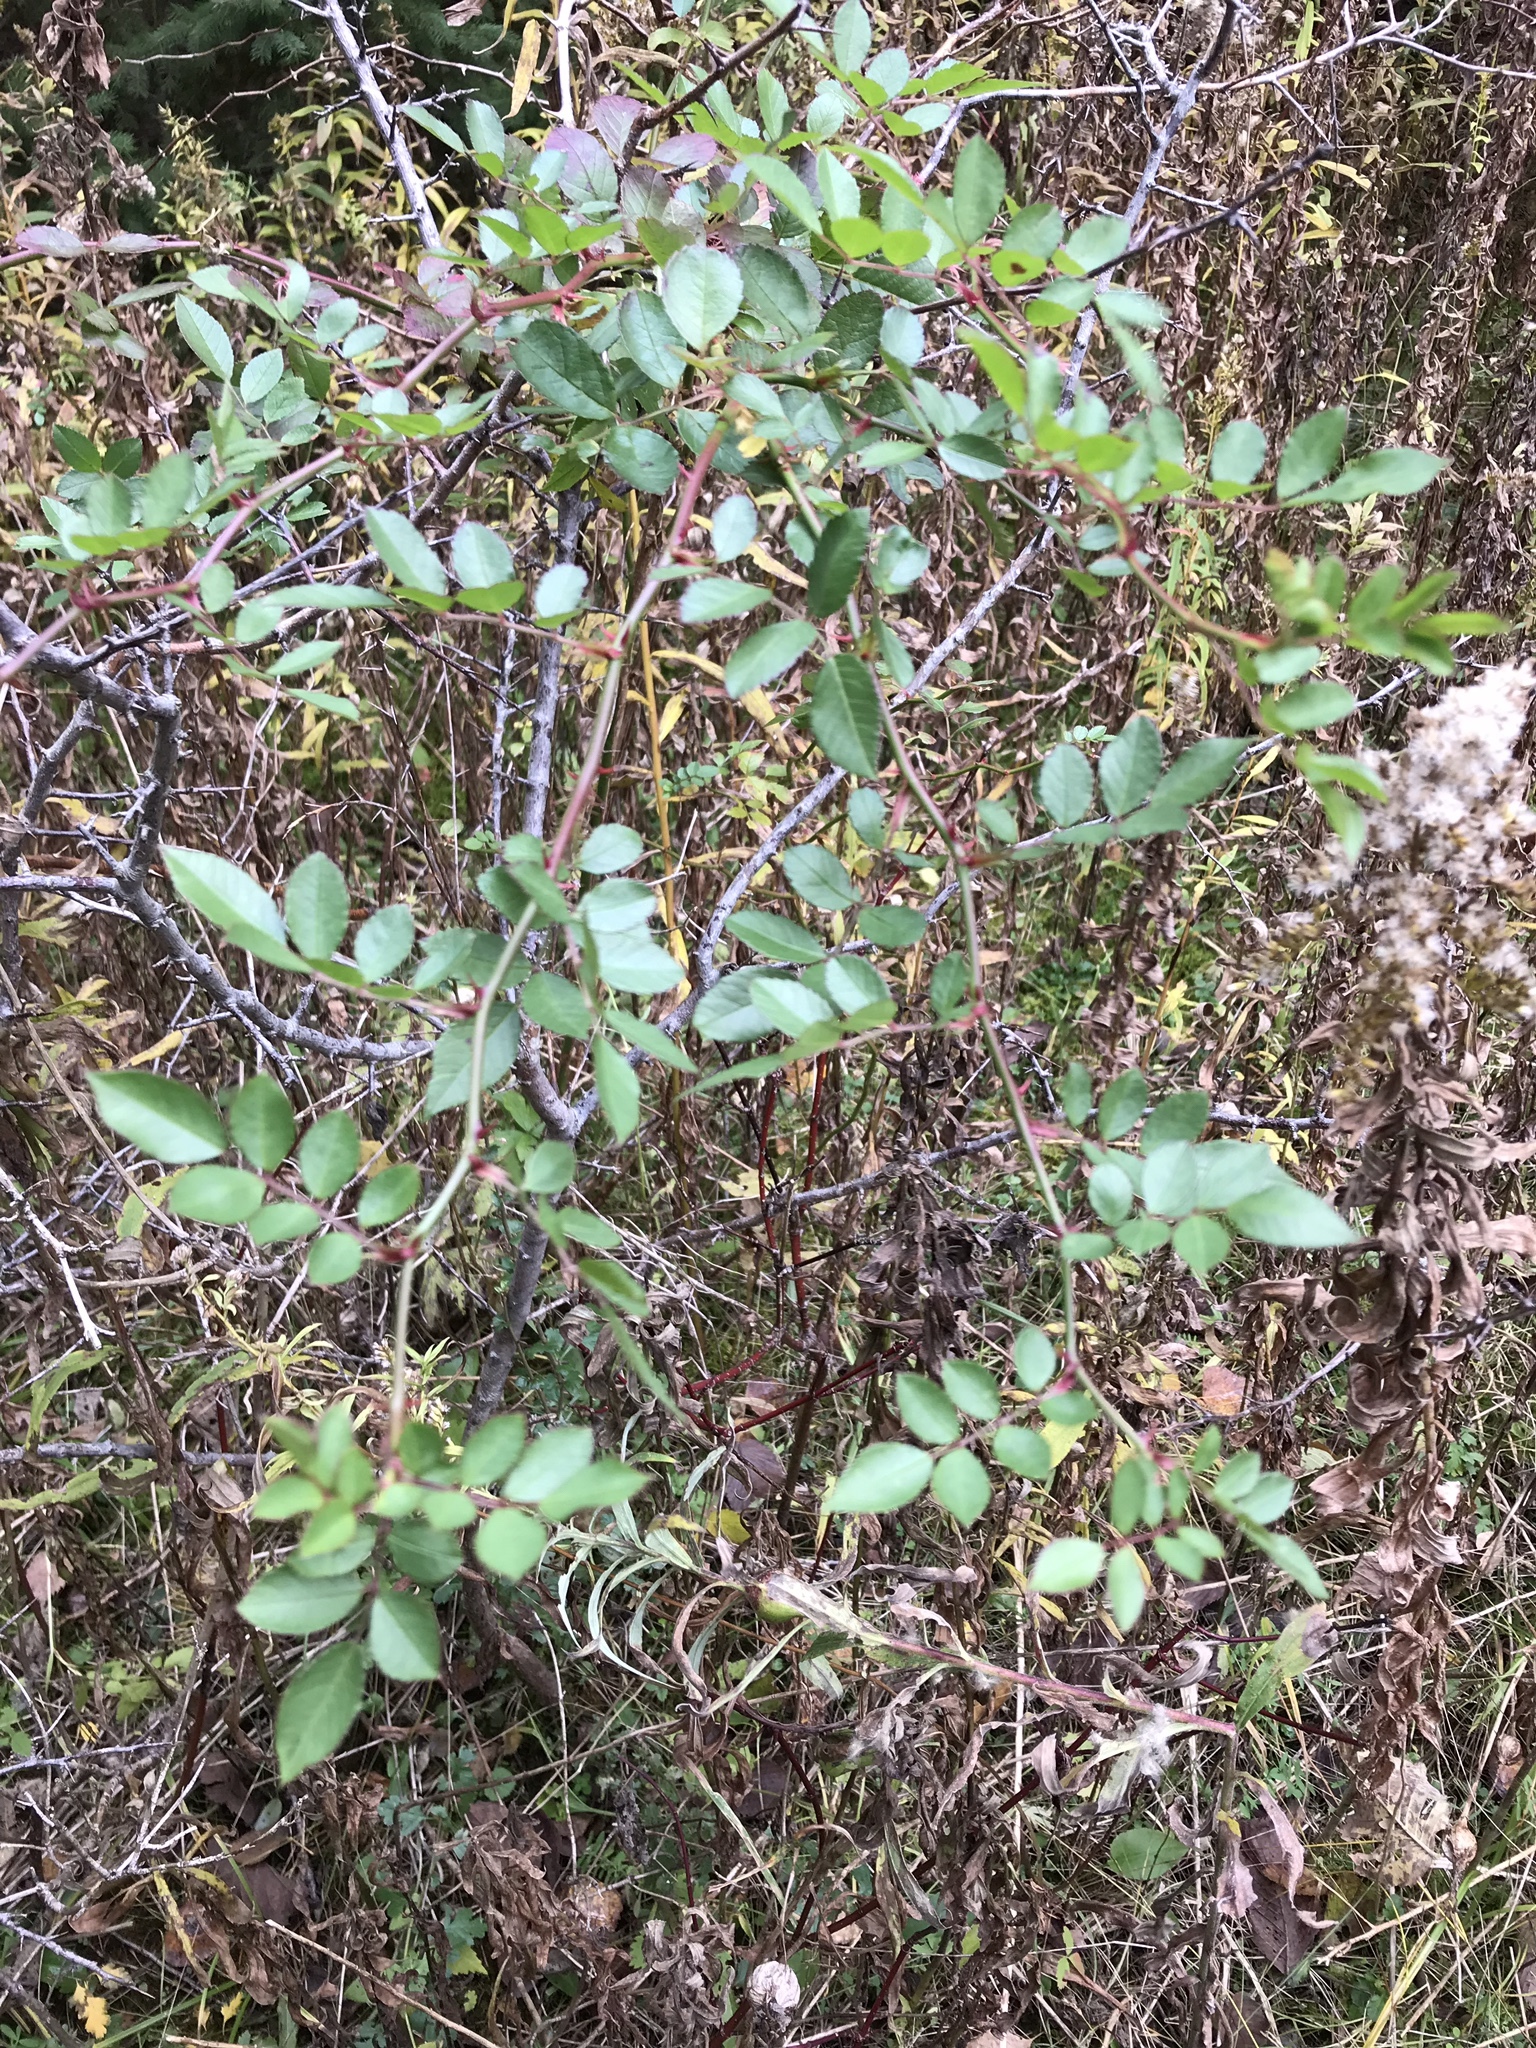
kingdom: Plantae
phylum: Tracheophyta
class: Magnoliopsida
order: Rosales
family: Rosaceae
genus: Rosa
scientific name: Rosa multiflora
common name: Multiflora rose
